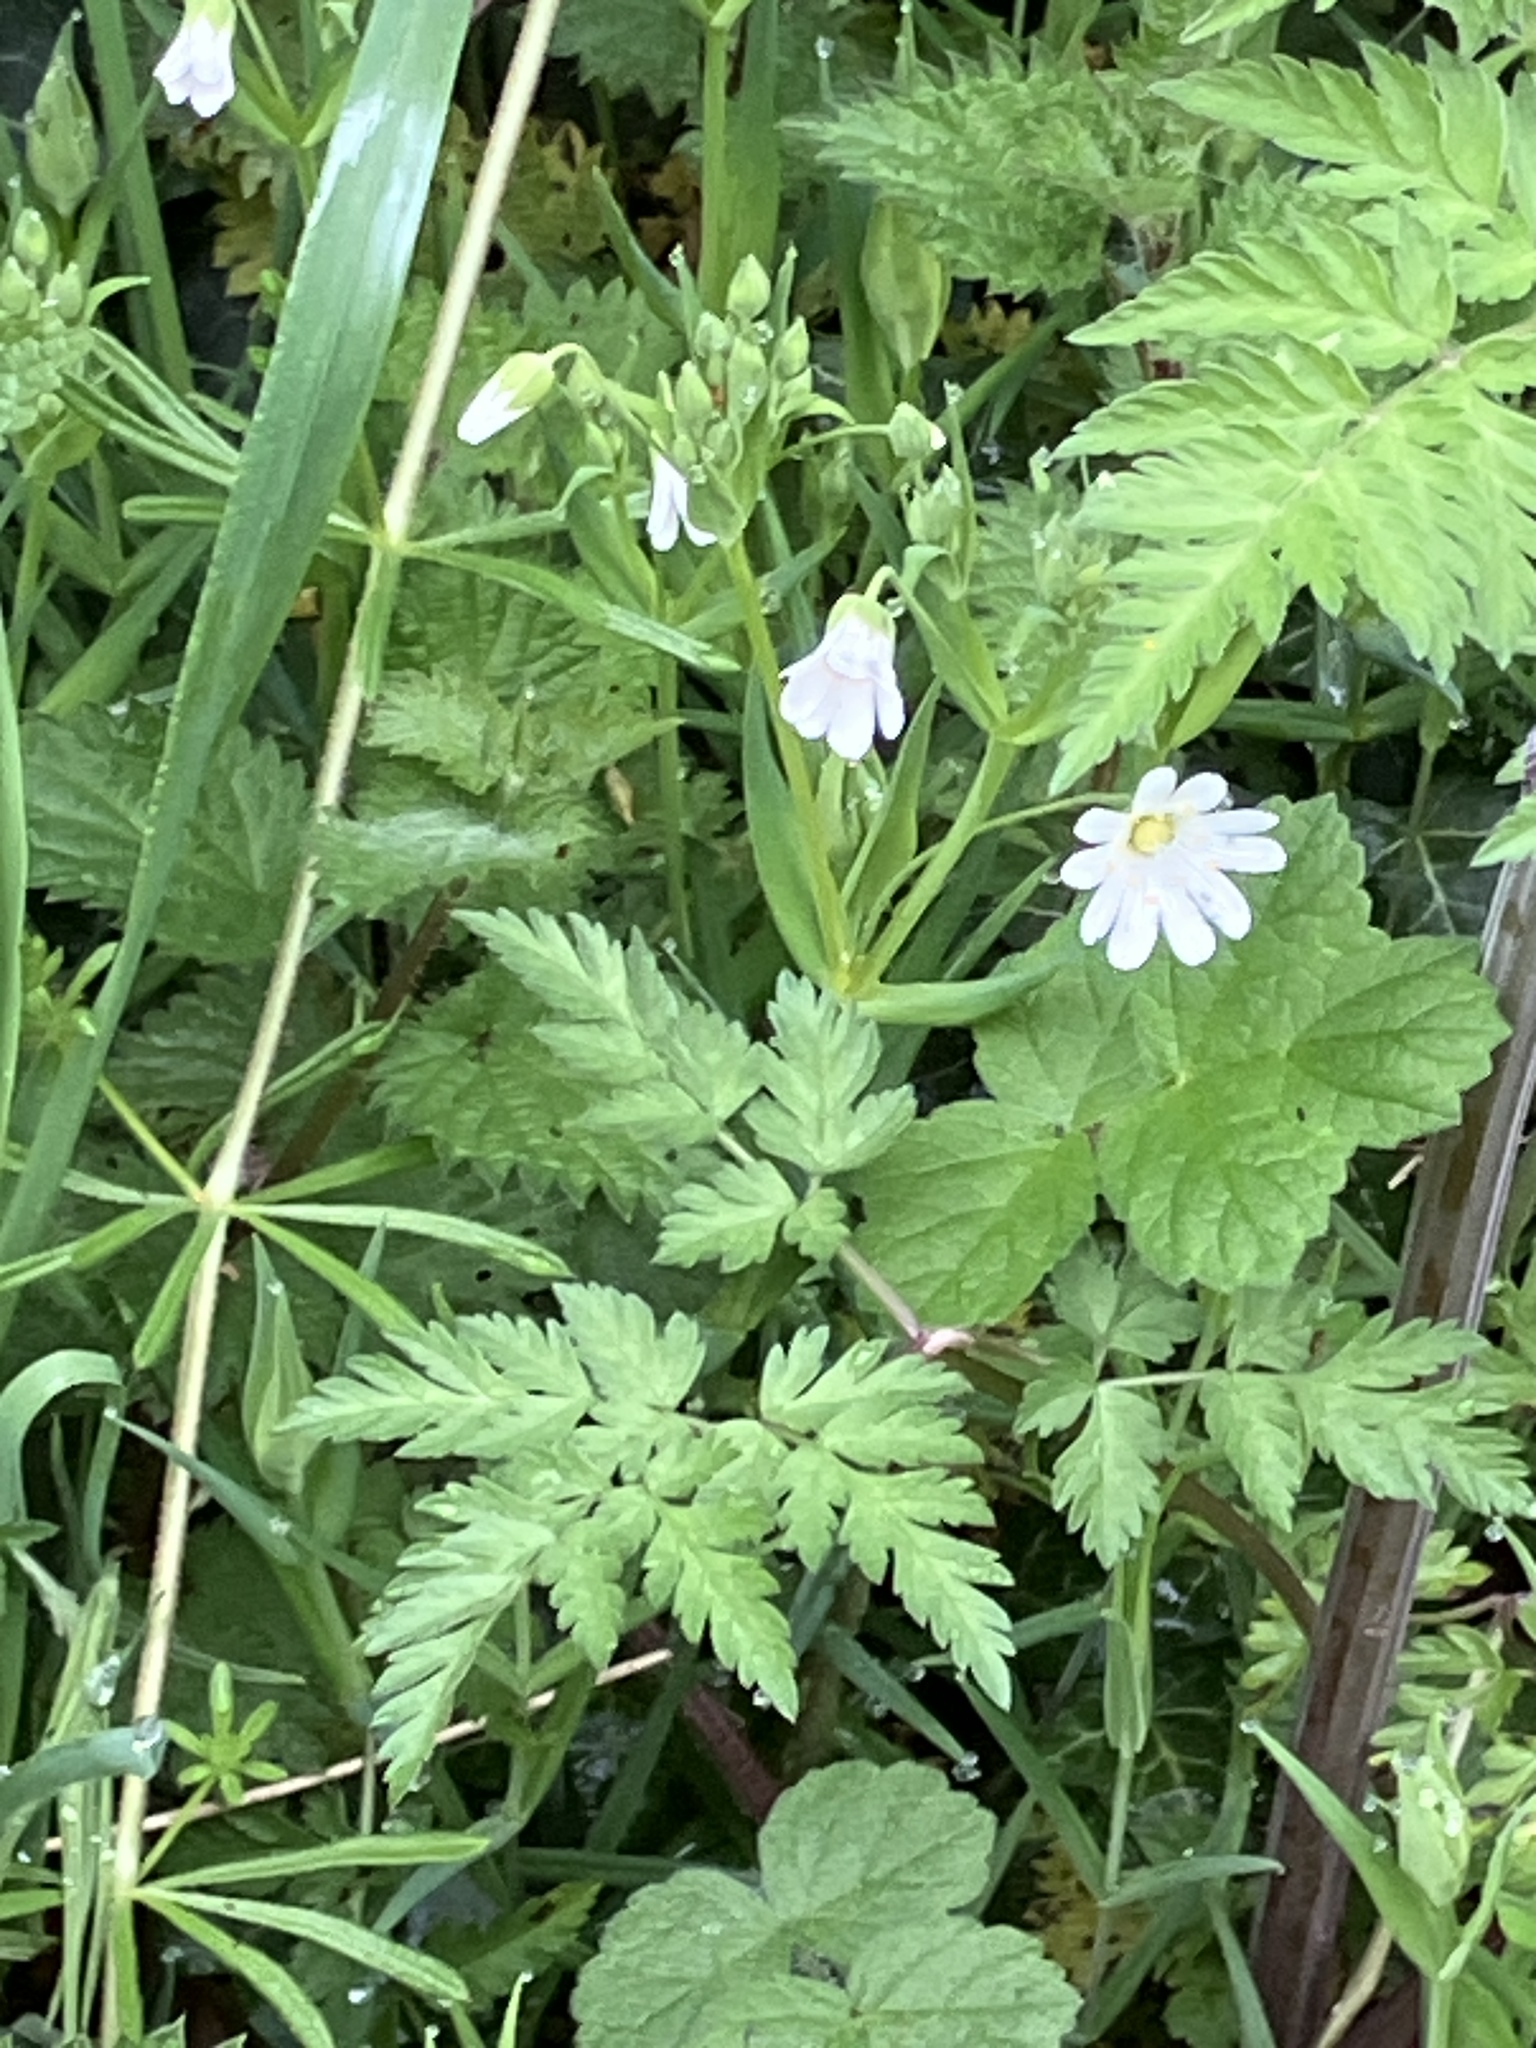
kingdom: Plantae
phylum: Tracheophyta
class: Magnoliopsida
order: Caryophyllales
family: Caryophyllaceae
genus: Rabelera
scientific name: Rabelera holostea
